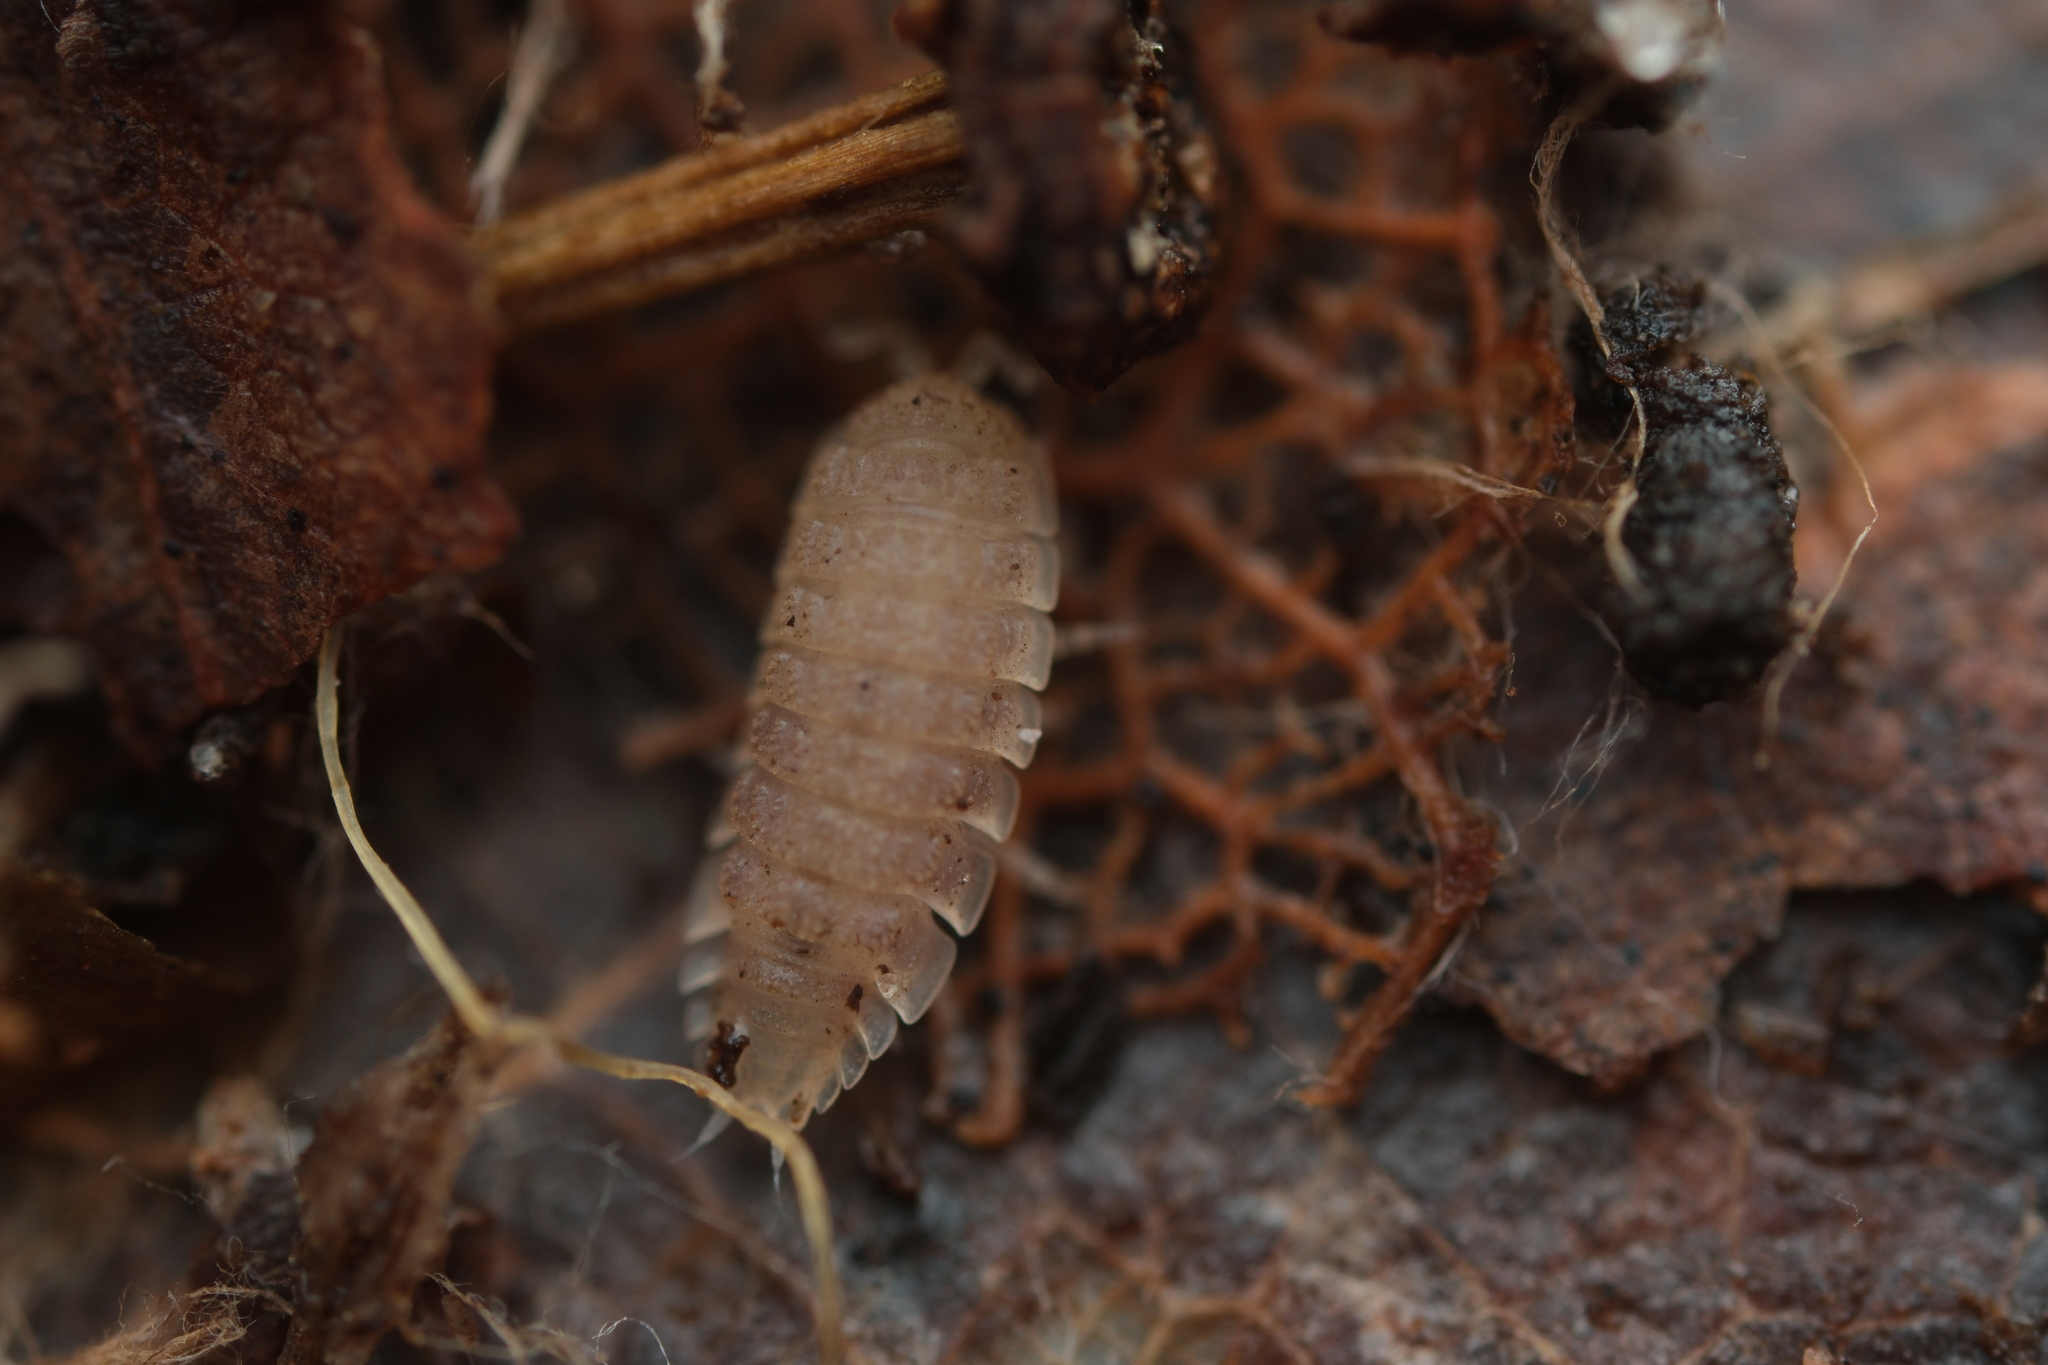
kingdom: Animalia
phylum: Arthropoda
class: Malacostraca
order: Isopoda
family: Trichoniscidae
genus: Haplophthalmus
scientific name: Haplophthalmus danicus
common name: Pillbug
